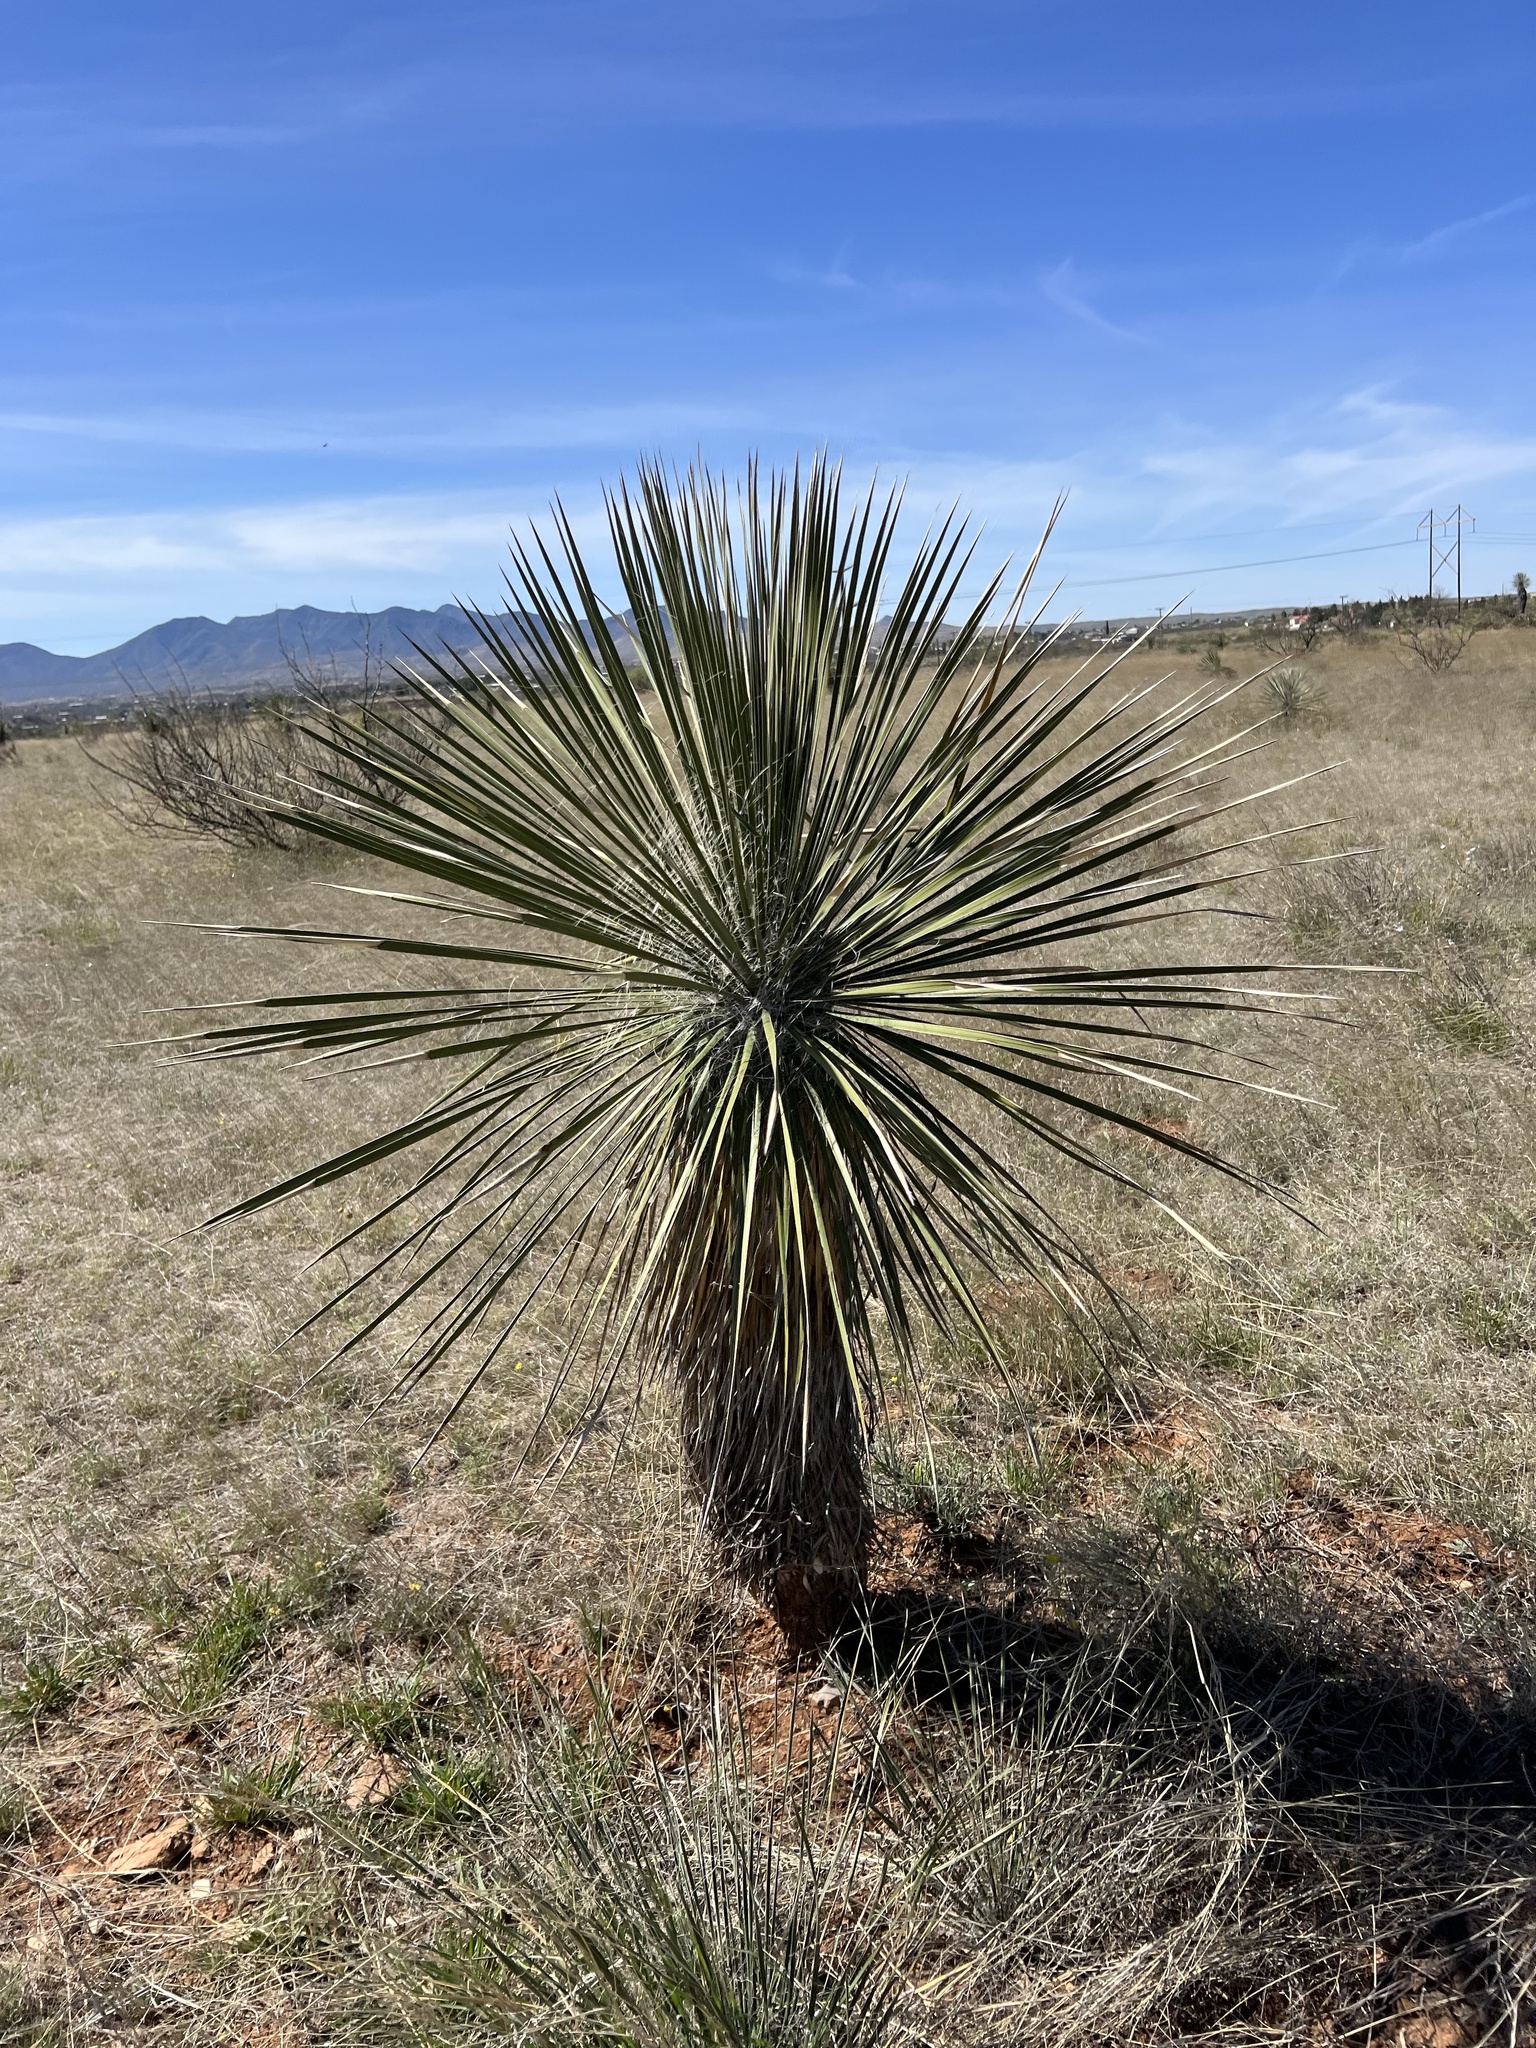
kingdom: Plantae
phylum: Tracheophyta
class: Liliopsida
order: Asparagales
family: Asparagaceae
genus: Yucca
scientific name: Yucca elata
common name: Palmella
